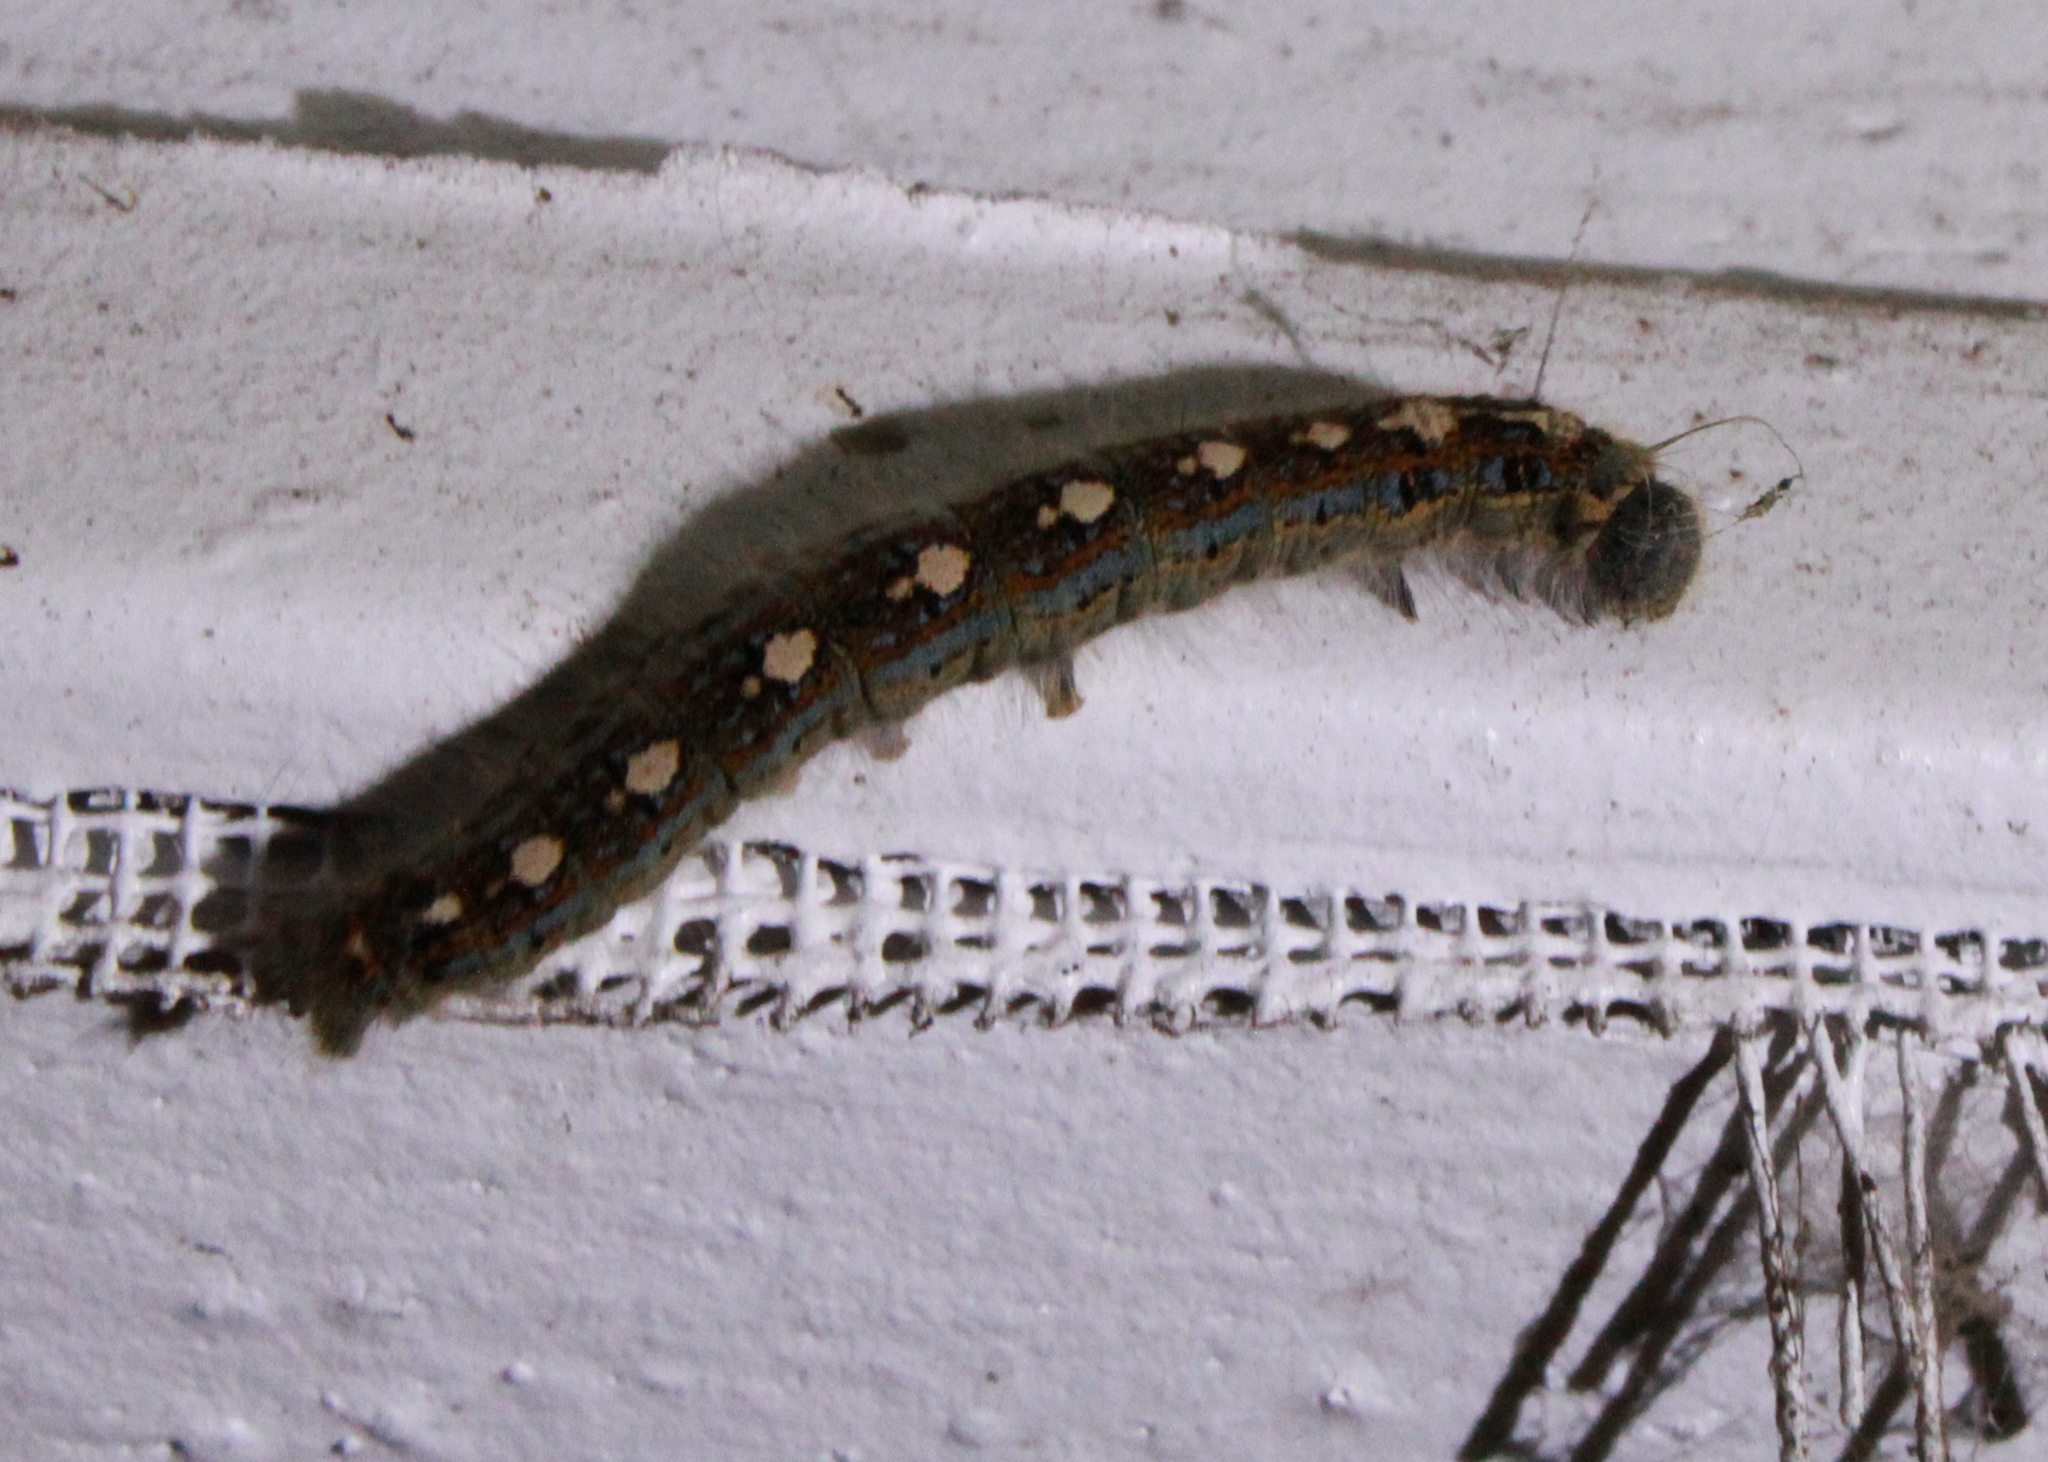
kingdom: Animalia
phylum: Arthropoda
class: Insecta
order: Lepidoptera
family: Lasiocampidae
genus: Malacosoma
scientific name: Malacosoma disstria
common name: Forest tent caterpillar
